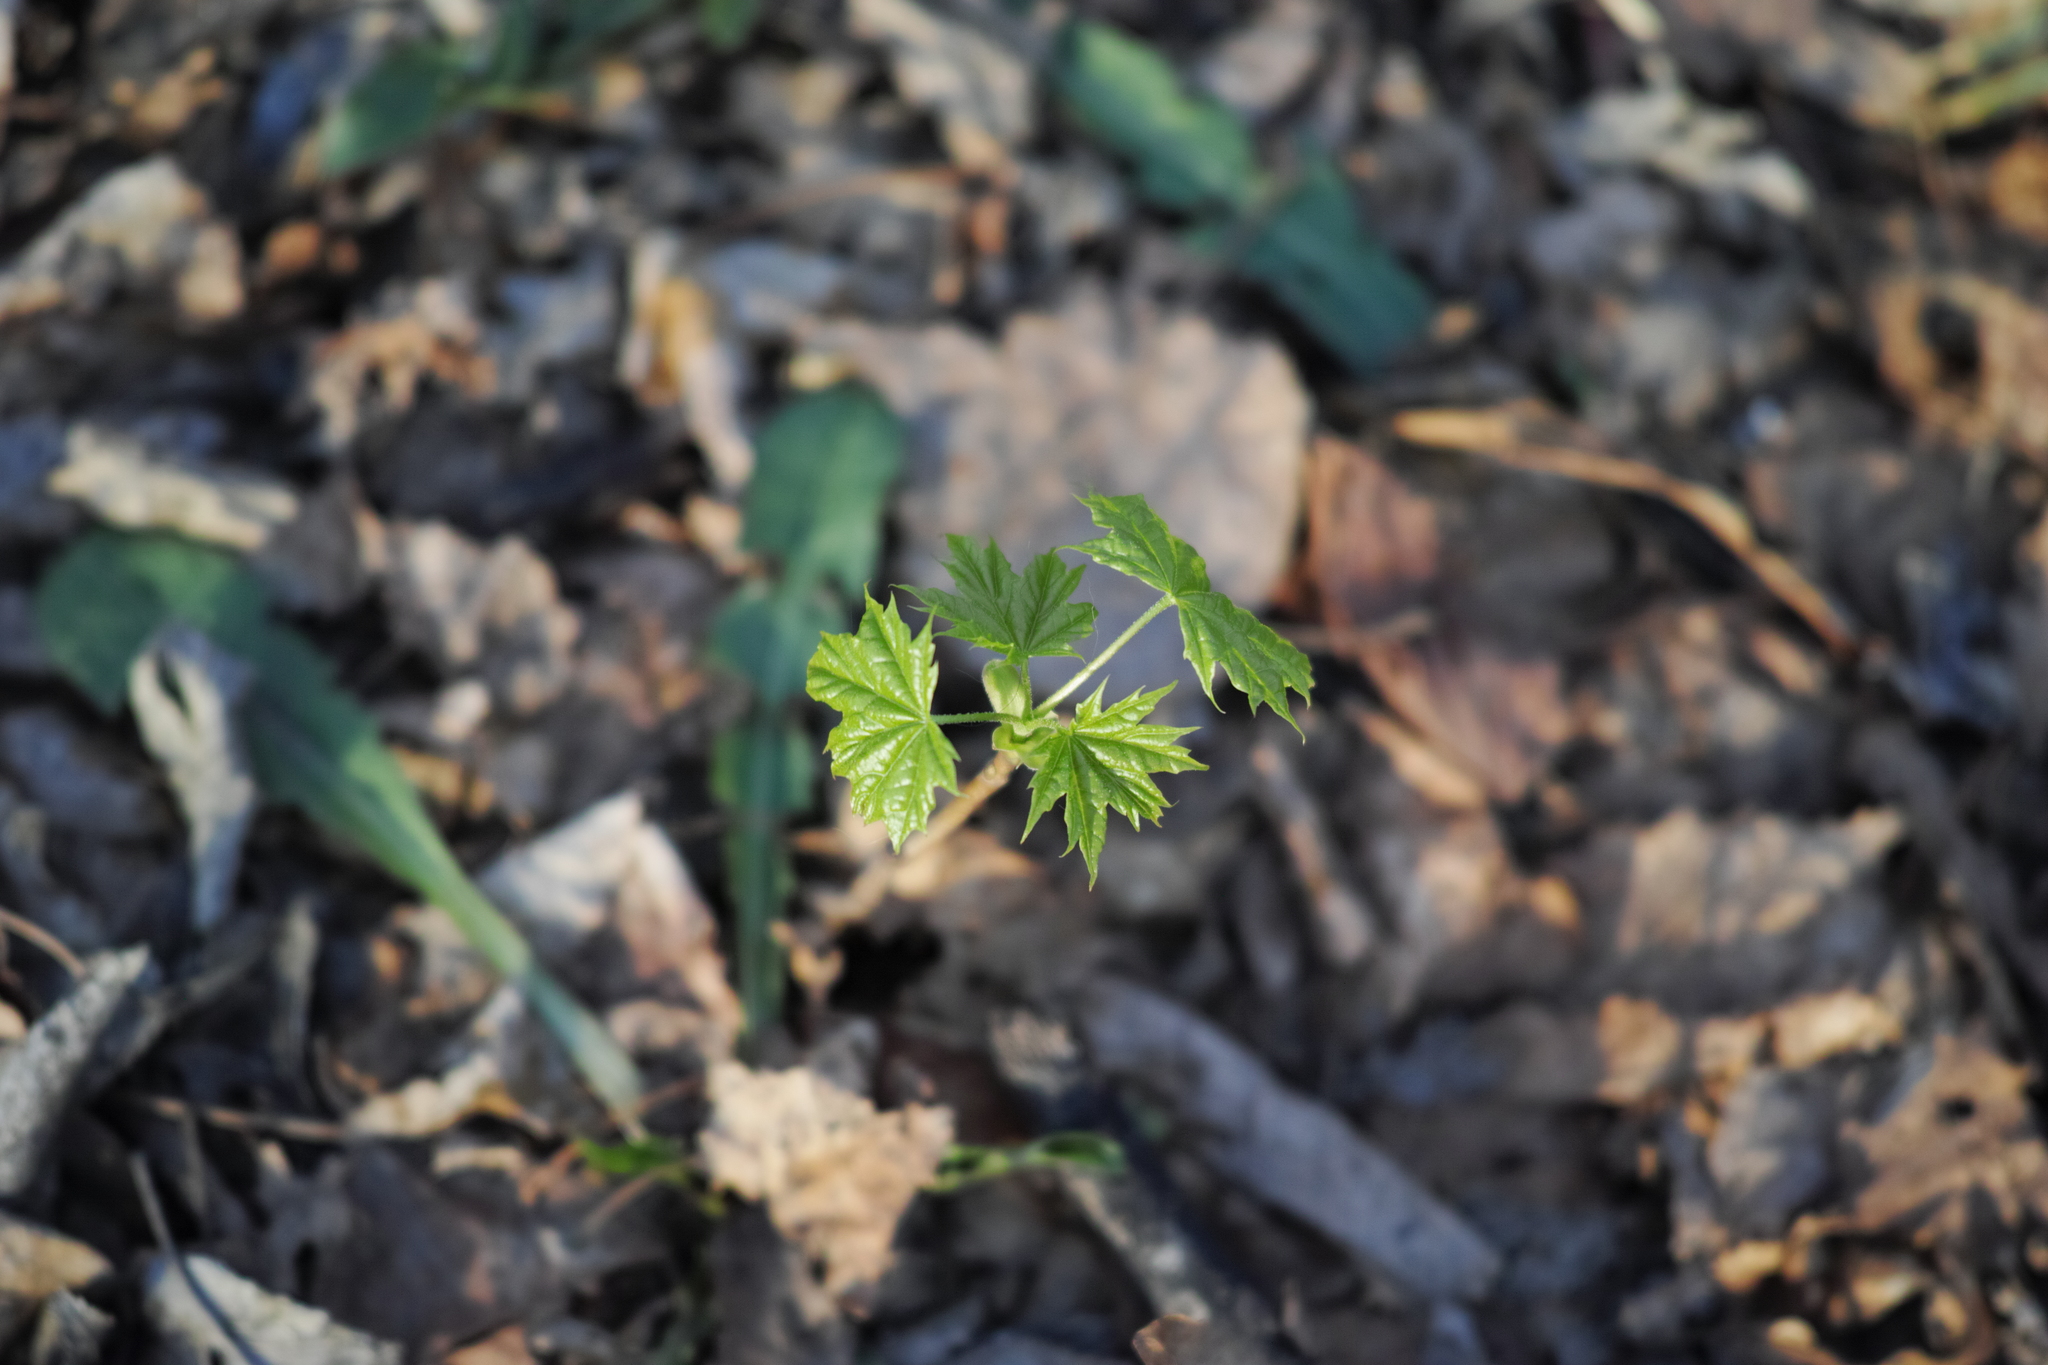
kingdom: Plantae
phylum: Tracheophyta
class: Magnoliopsida
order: Sapindales
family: Sapindaceae
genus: Acer
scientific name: Acer platanoides
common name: Norway maple
